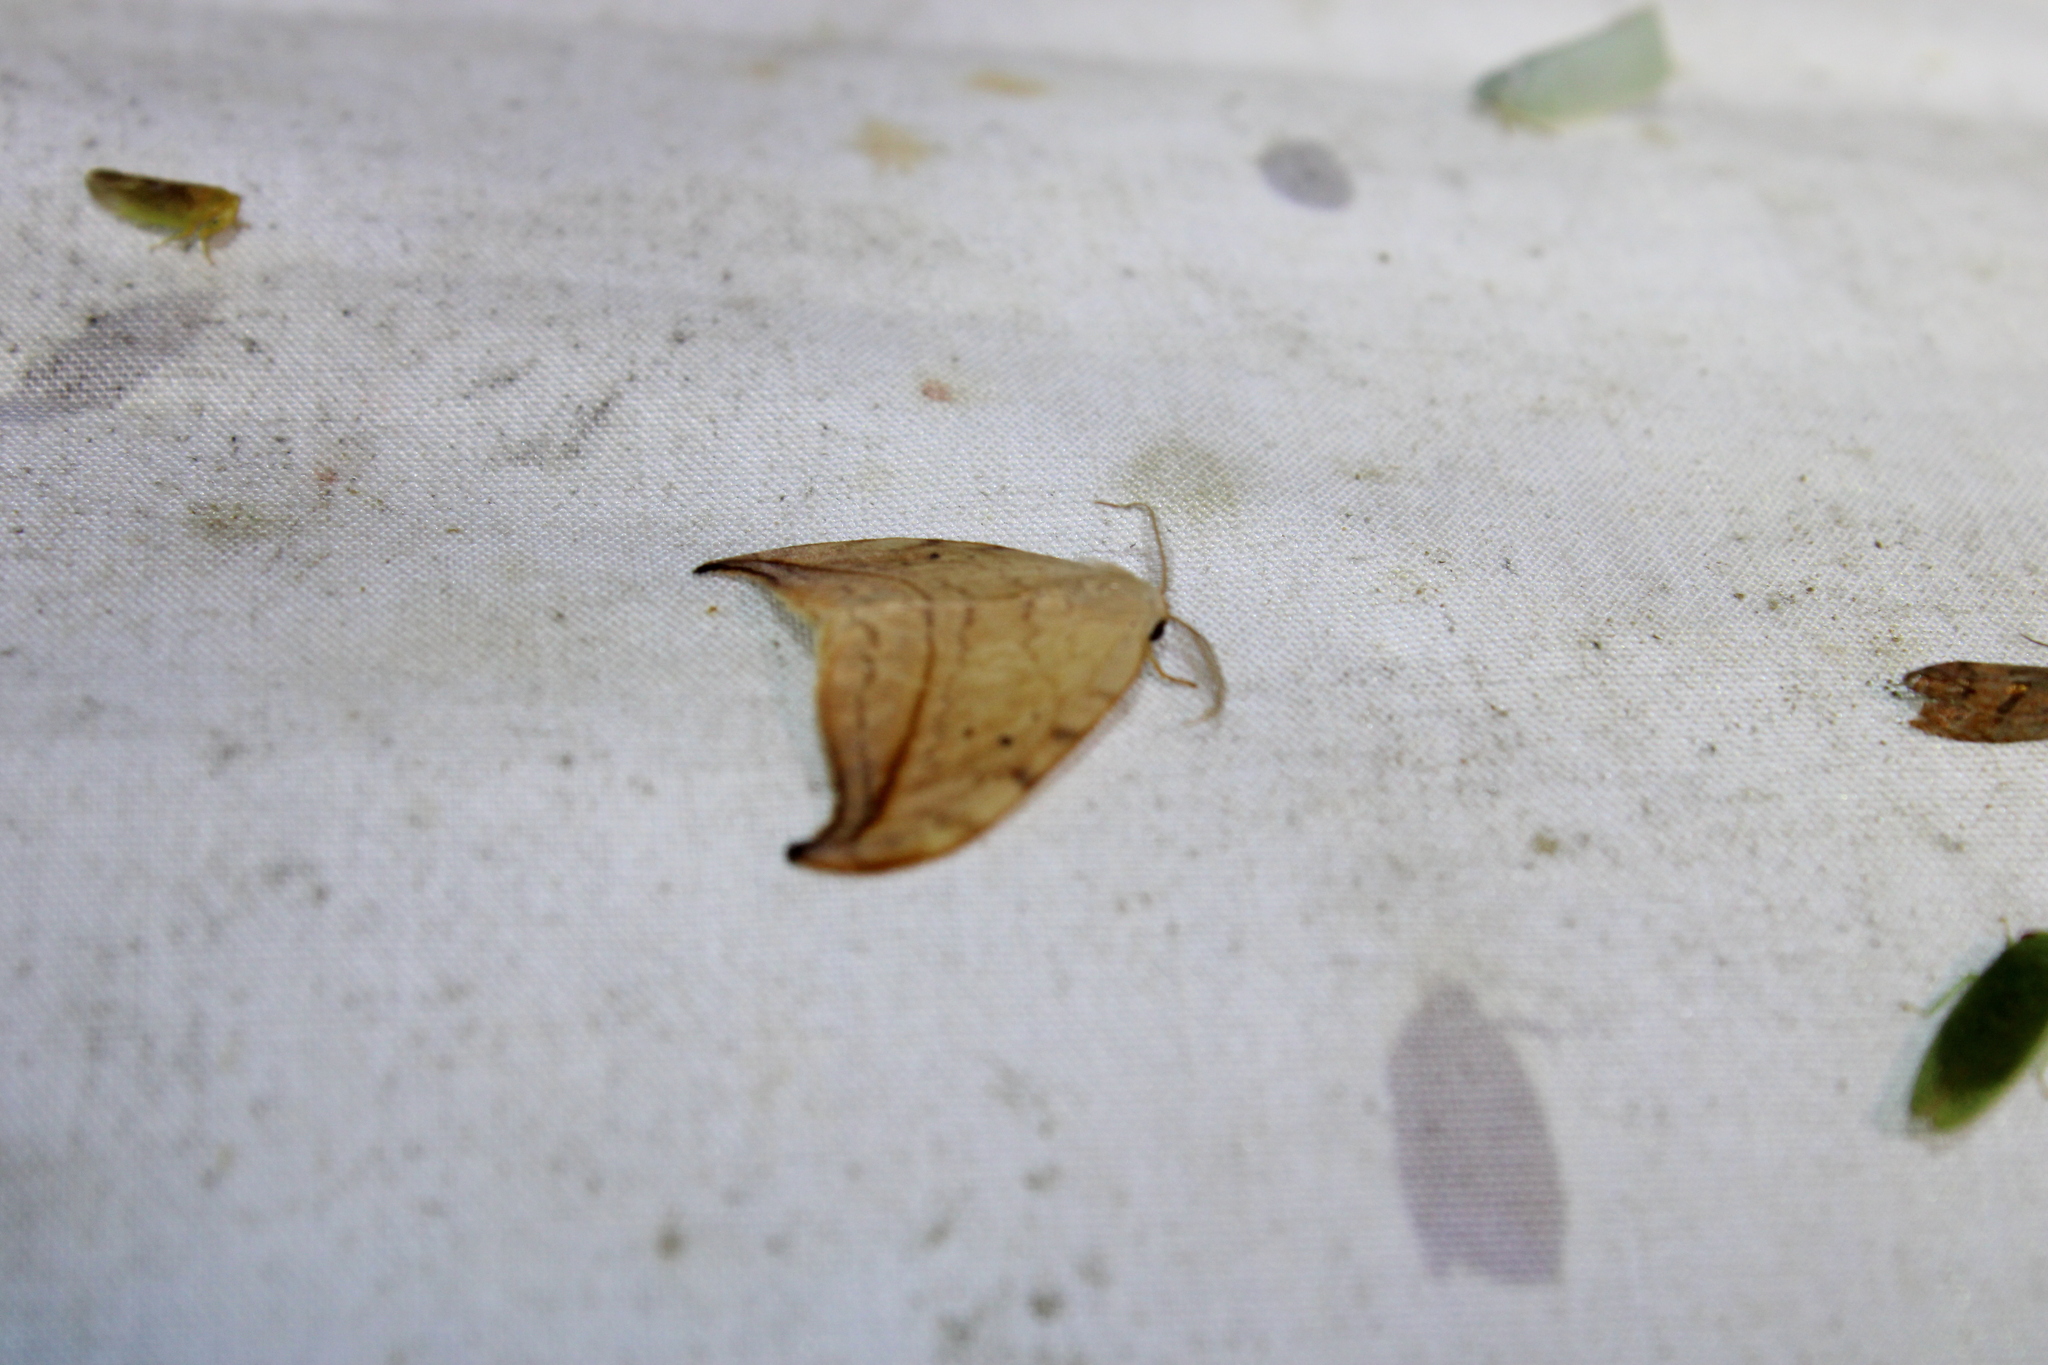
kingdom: Animalia
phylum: Arthropoda
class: Insecta
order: Lepidoptera
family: Drepanidae
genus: Drepana
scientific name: Drepana arcuata
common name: Arched hooktip moth
